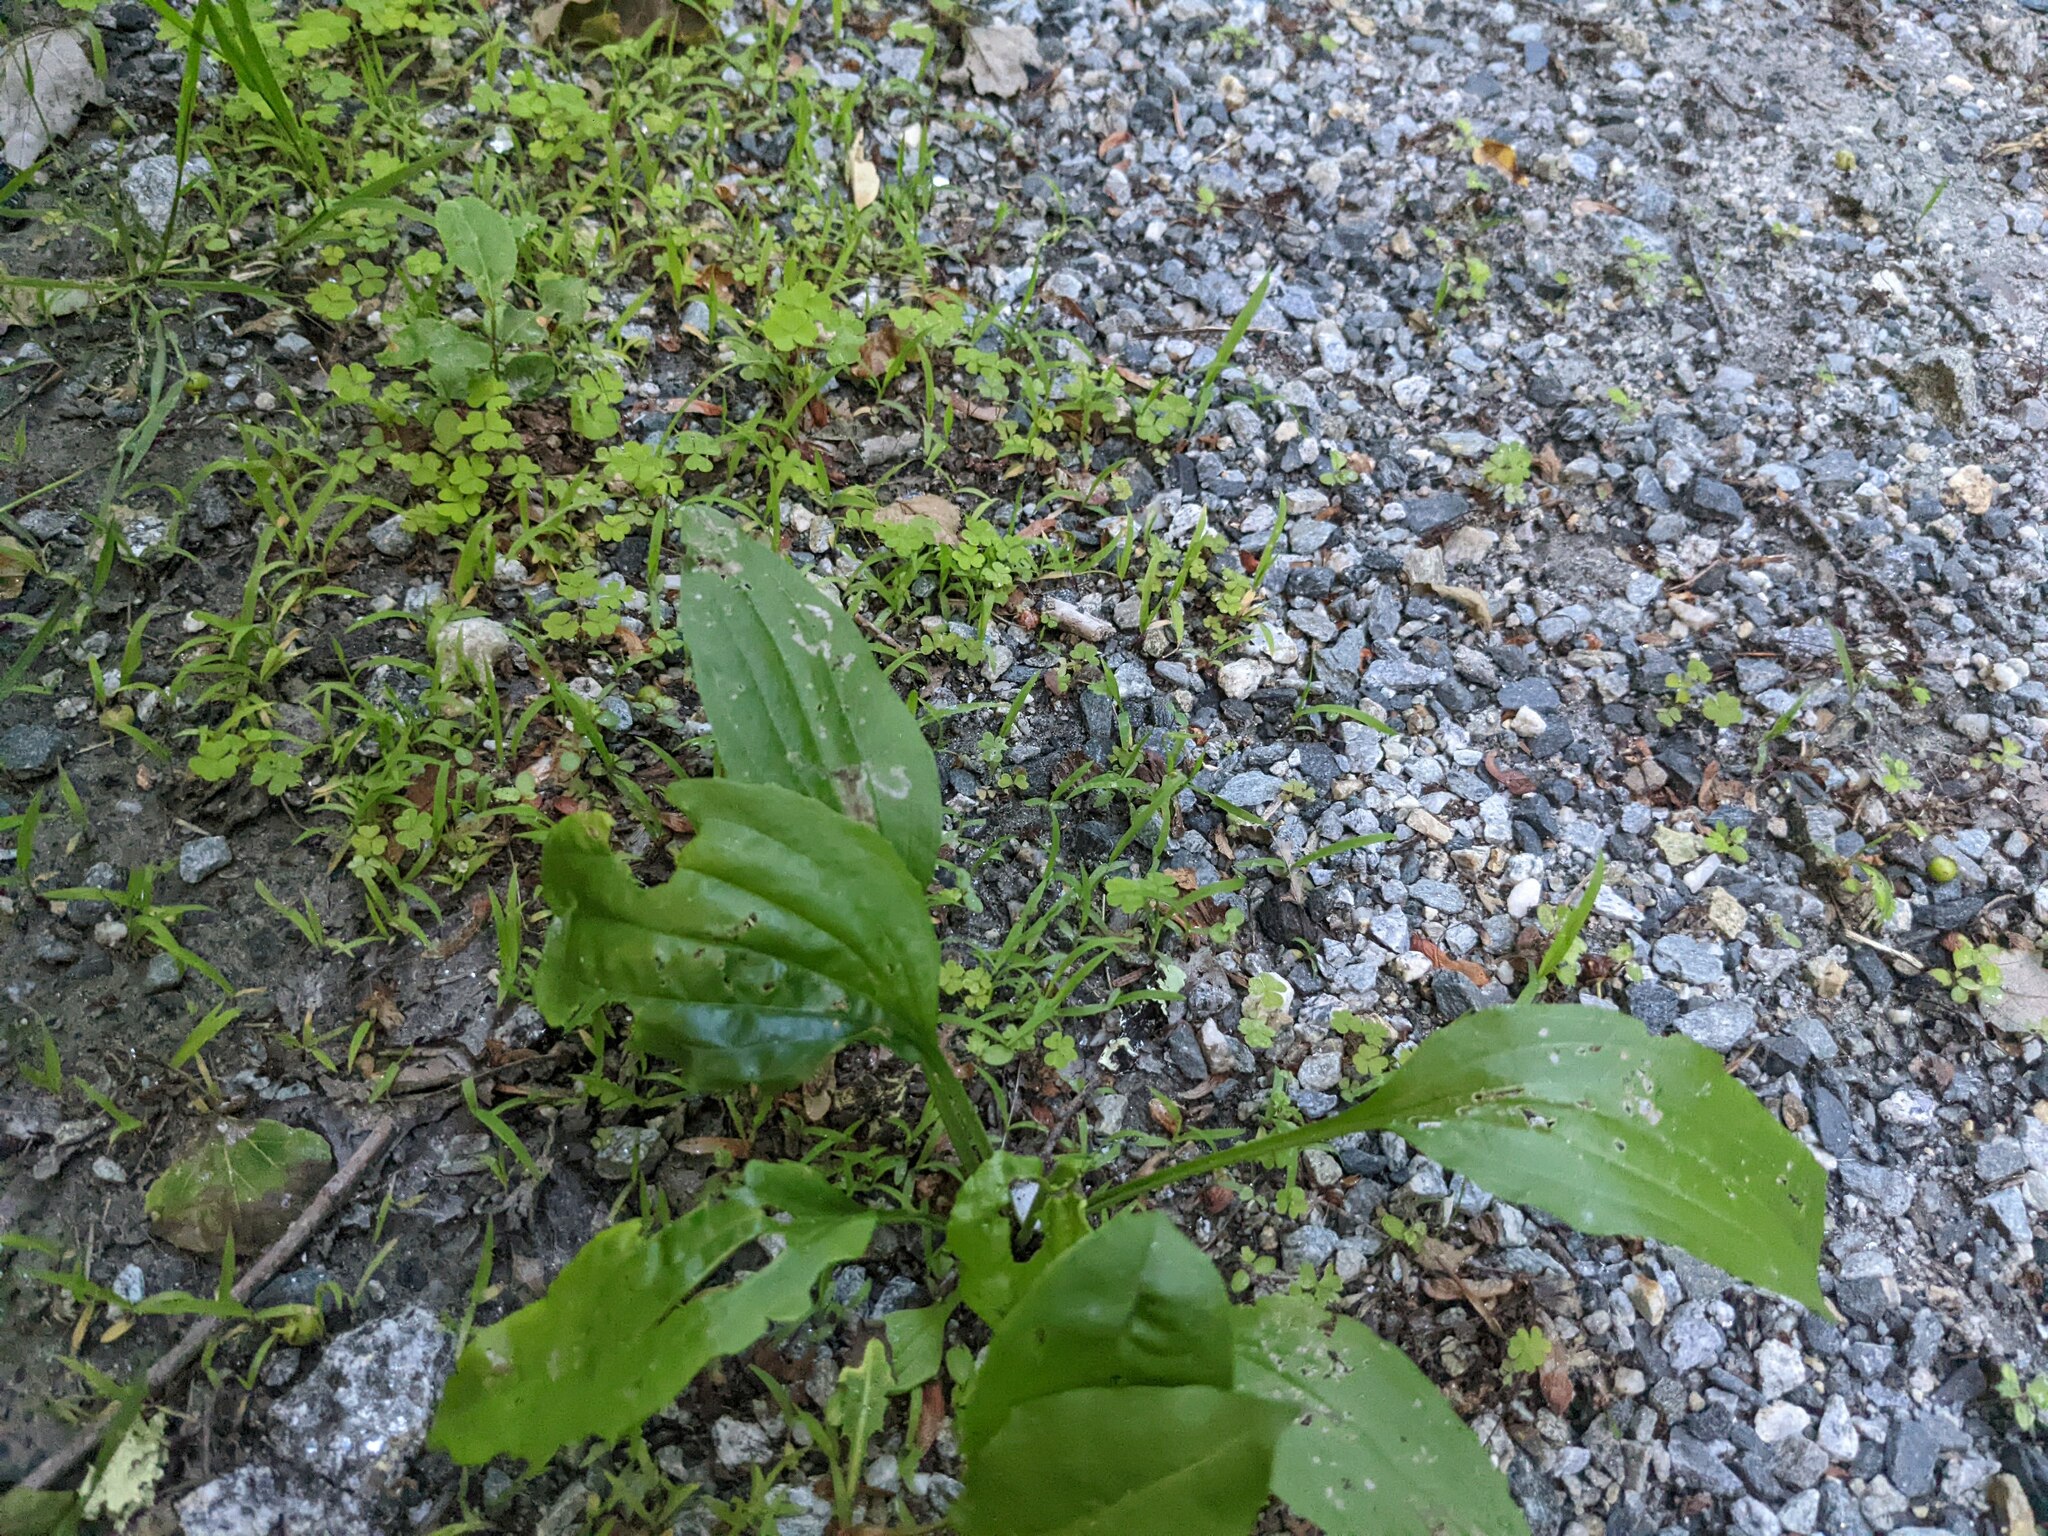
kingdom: Plantae
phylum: Tracheophyta
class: Magnoliopsida
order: Lamiales
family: Plantaginaceae
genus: Plantago
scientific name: Plantago rugelii
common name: American plantain
